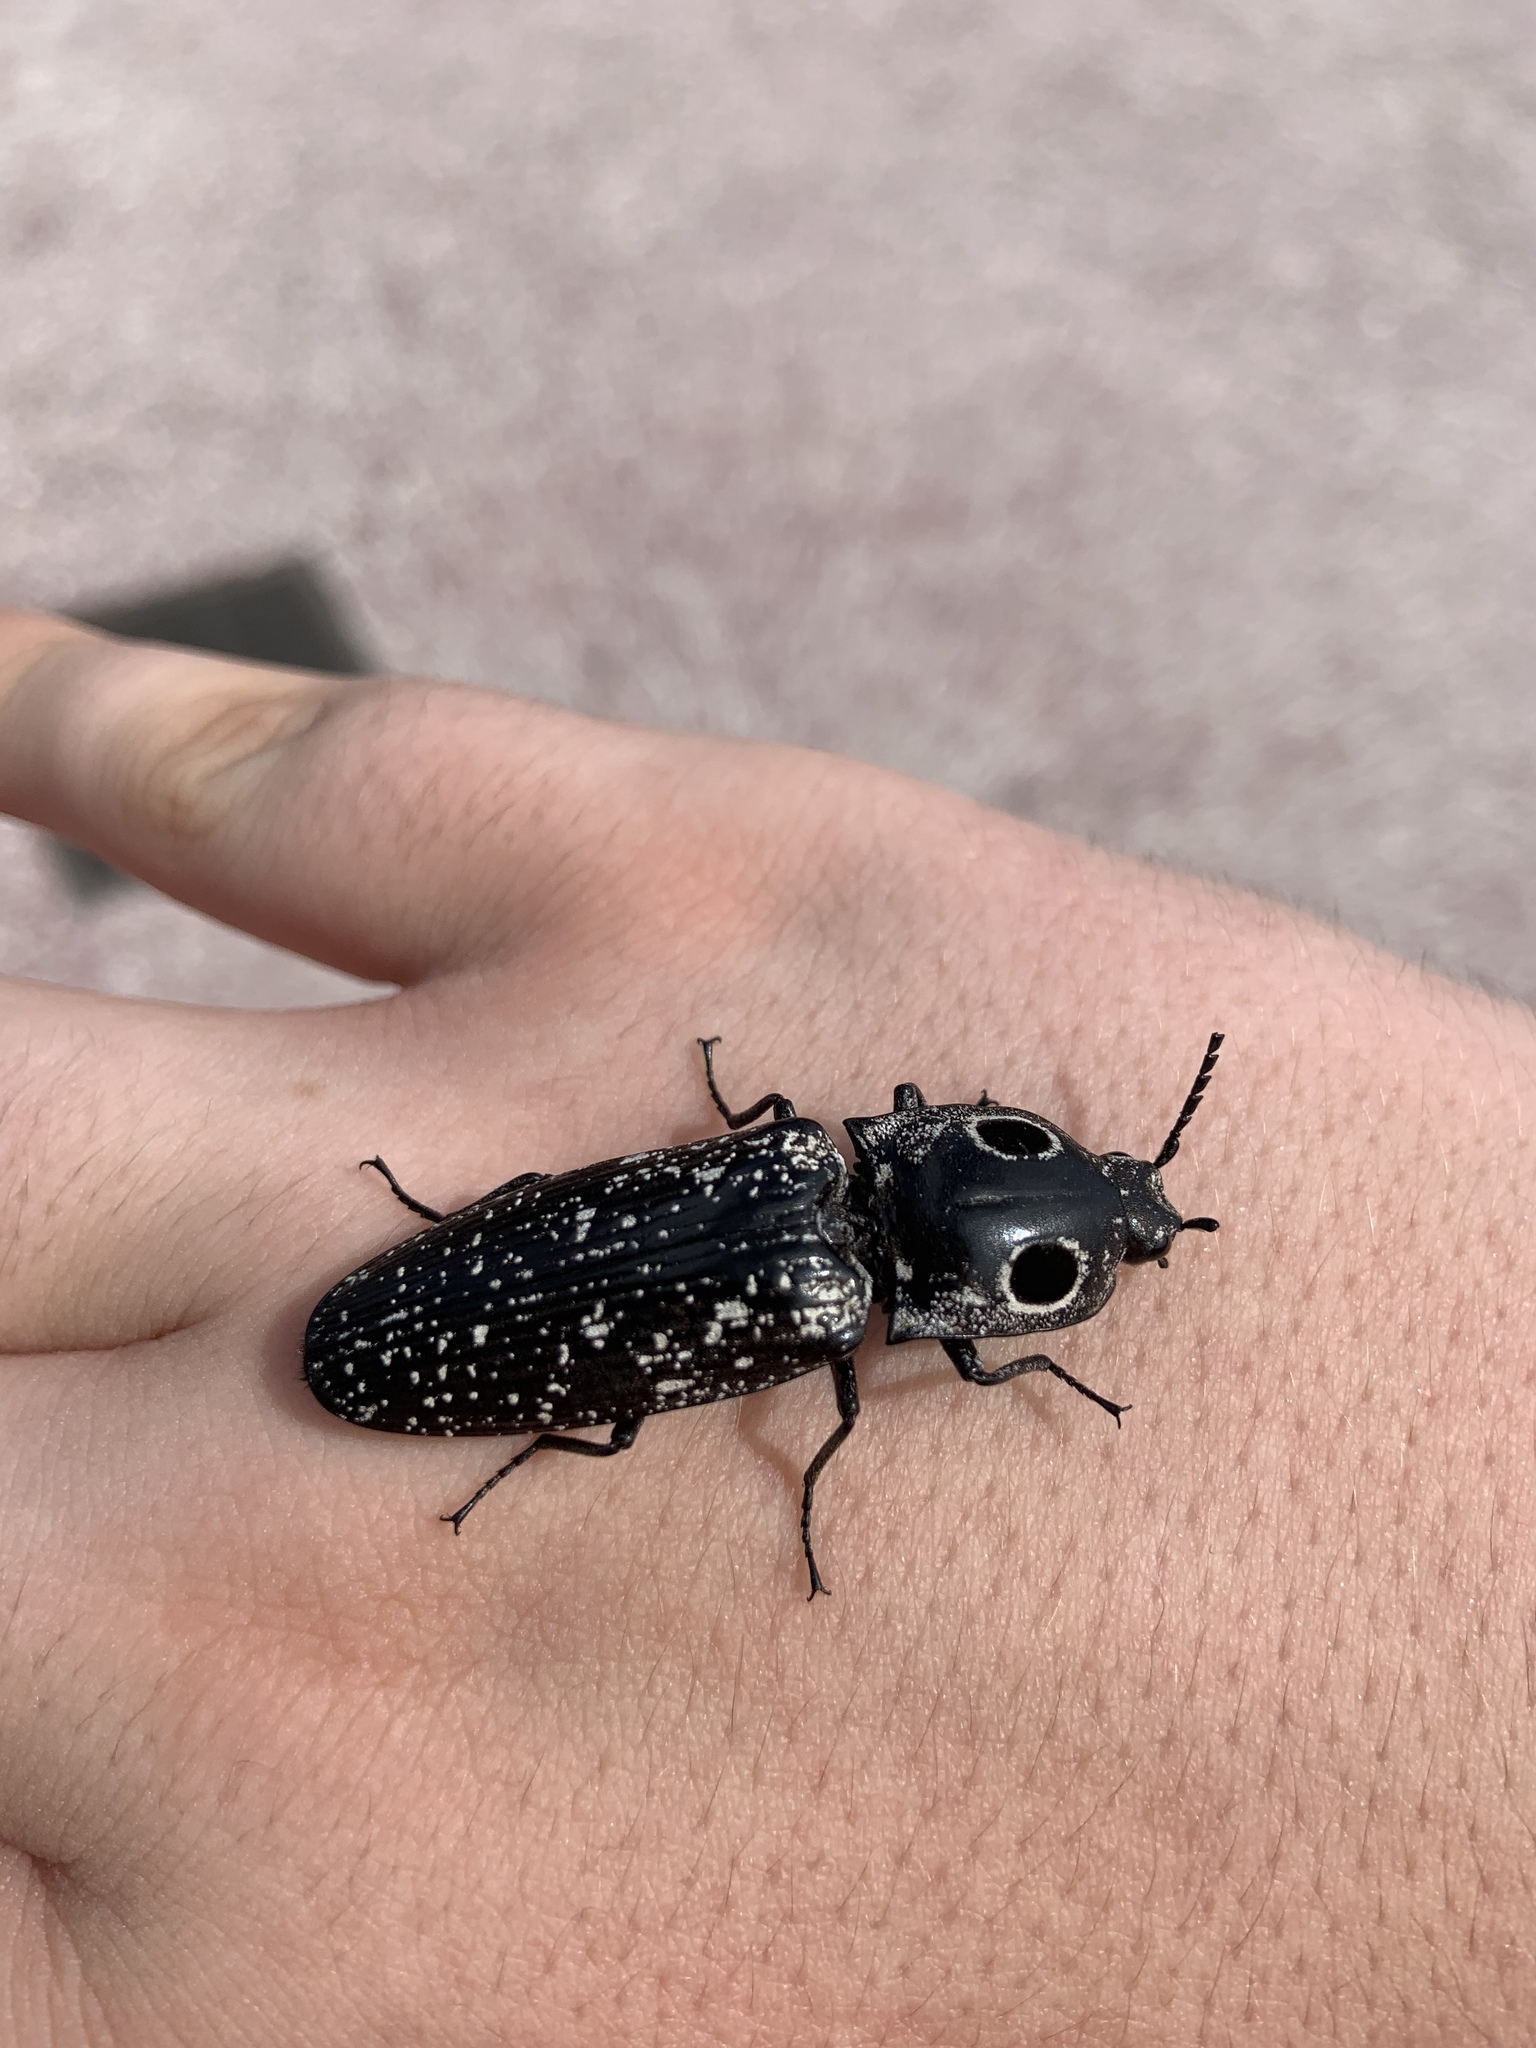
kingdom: Animalia
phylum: Arthropoda
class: Insecta
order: Coleoptera
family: Elateridae
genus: Alaus
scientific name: Alaus oculatus
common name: Eastern eyed click beetle
